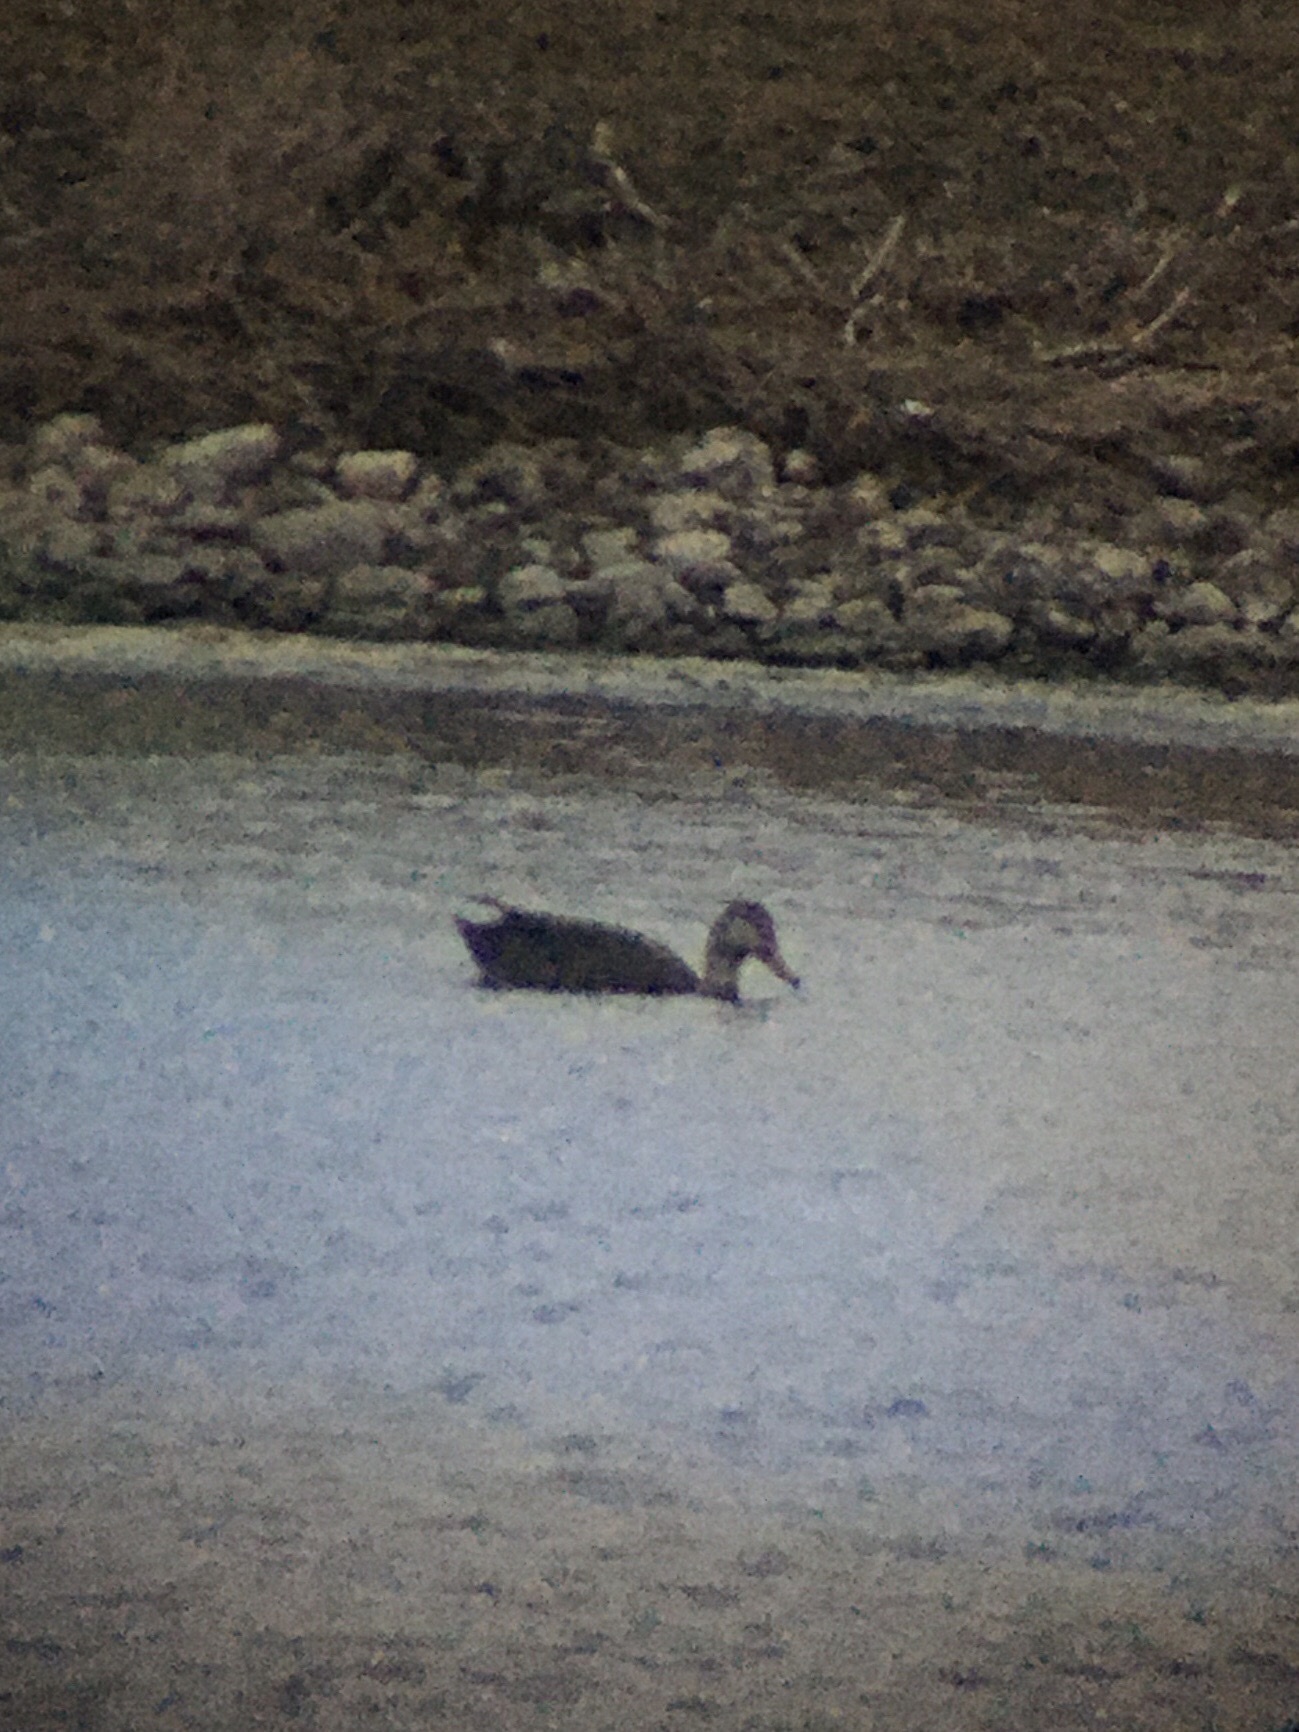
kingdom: Animalia
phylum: Chordata
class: Aves
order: Anseriformes
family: Anatidae
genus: Anas
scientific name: Anas rubripes
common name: American black duck
